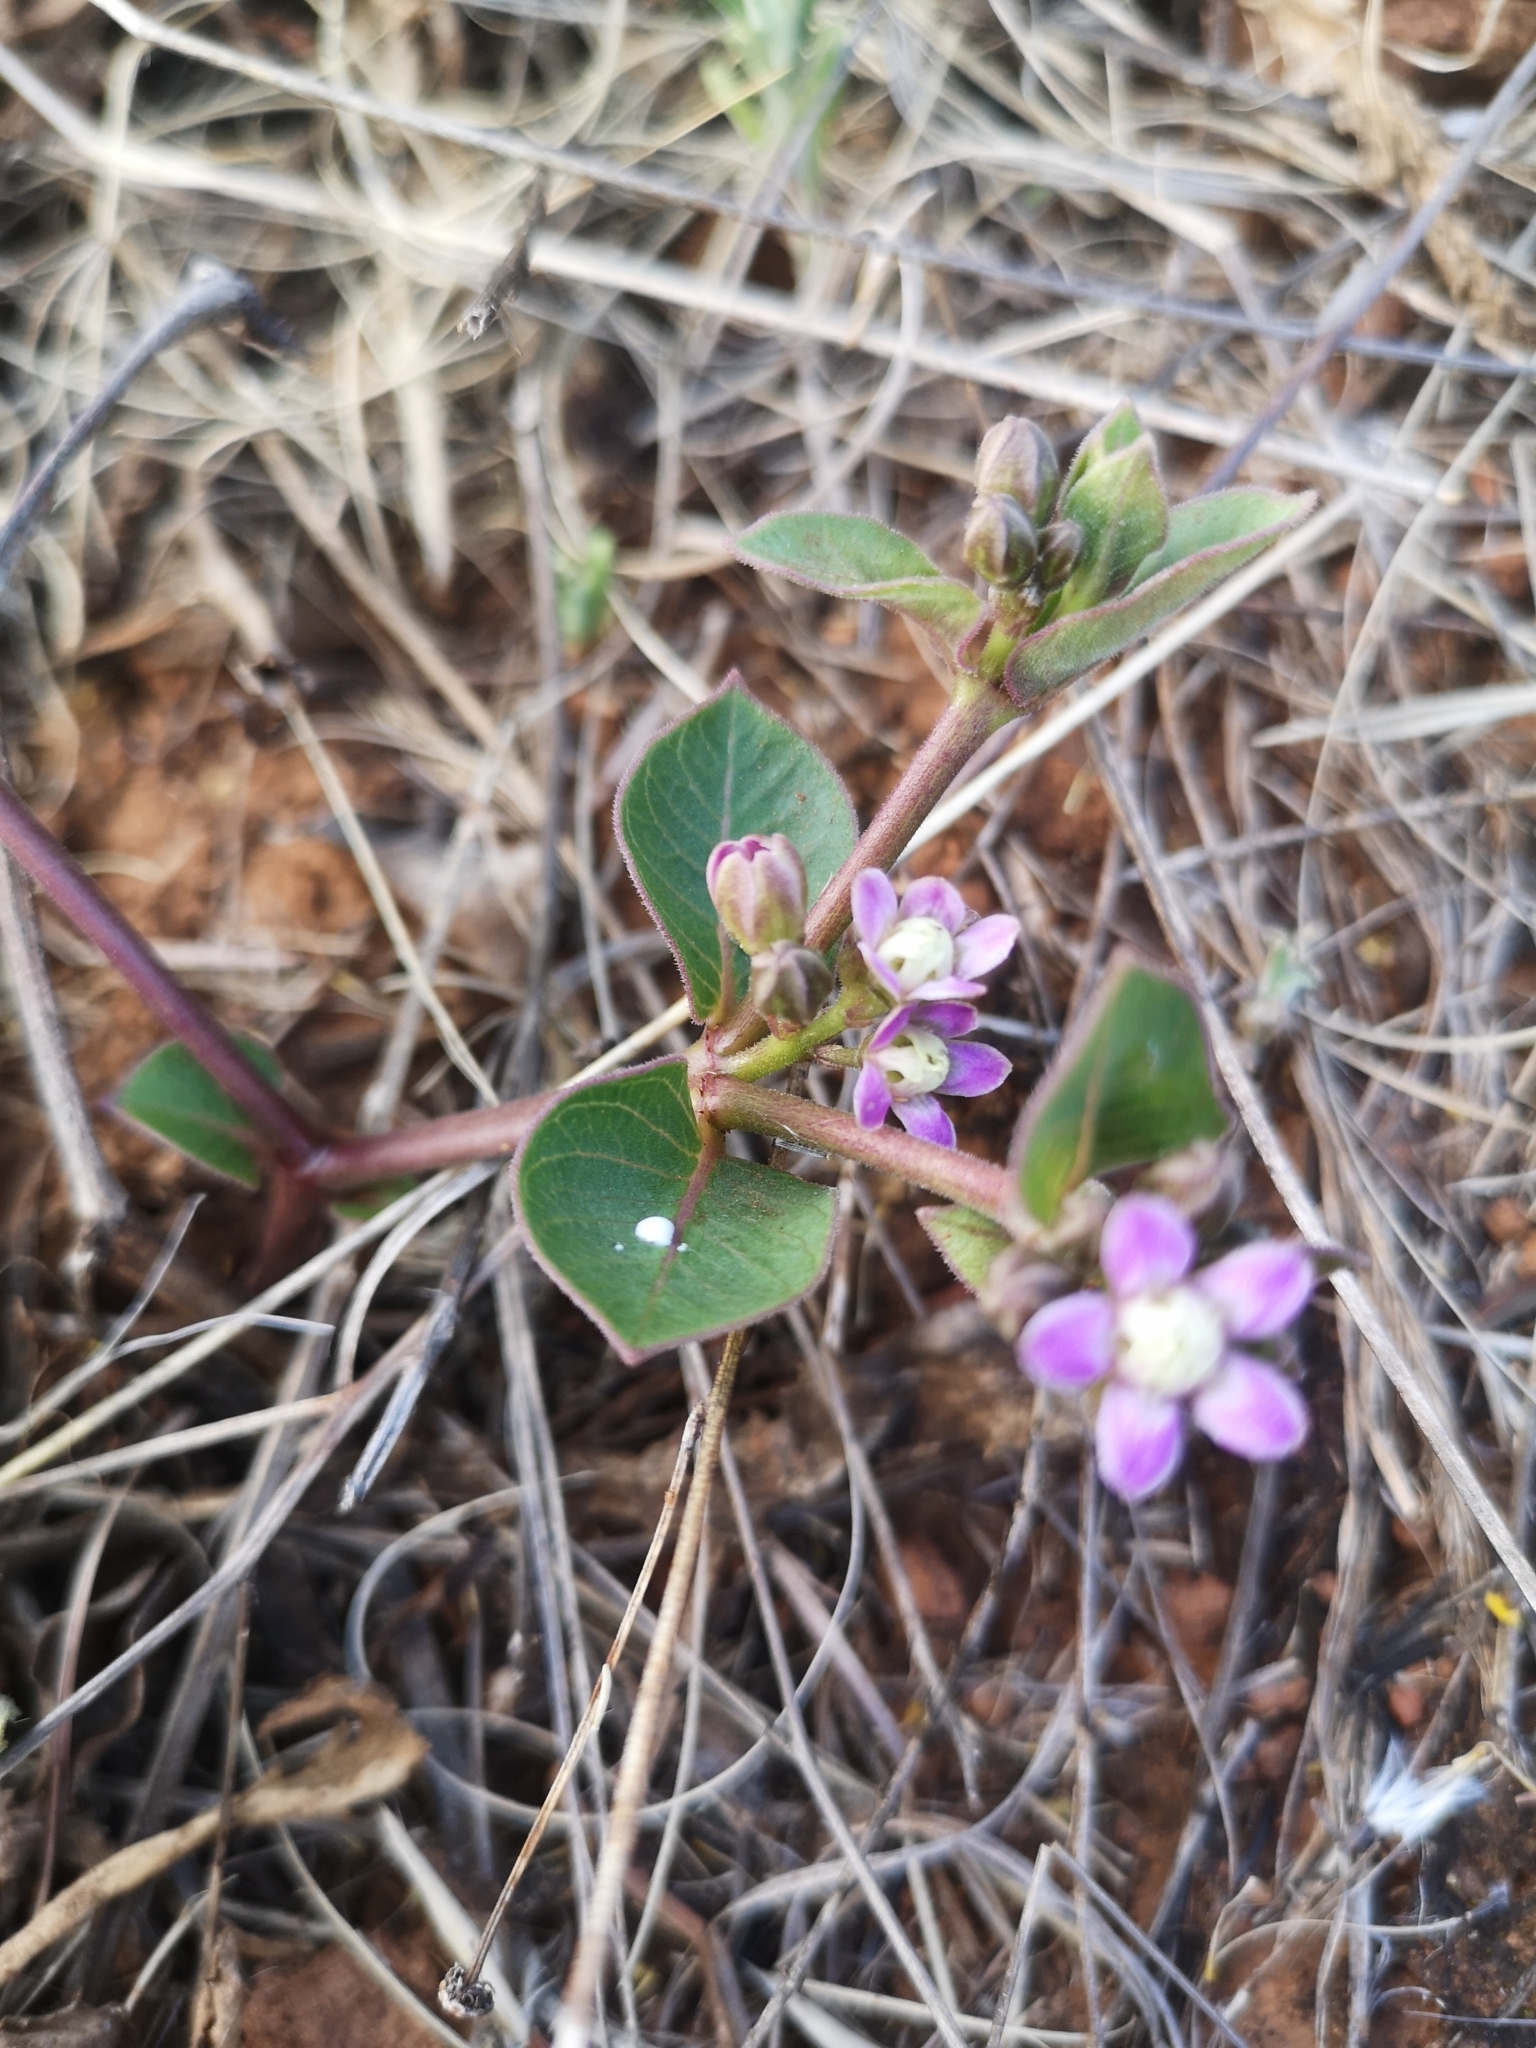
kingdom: Plantae
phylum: Tracheophyta
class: Magnoliopsida
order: Gentianales
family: Apocynaceae
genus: Raphionacme
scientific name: Raphionacme hirsuta
